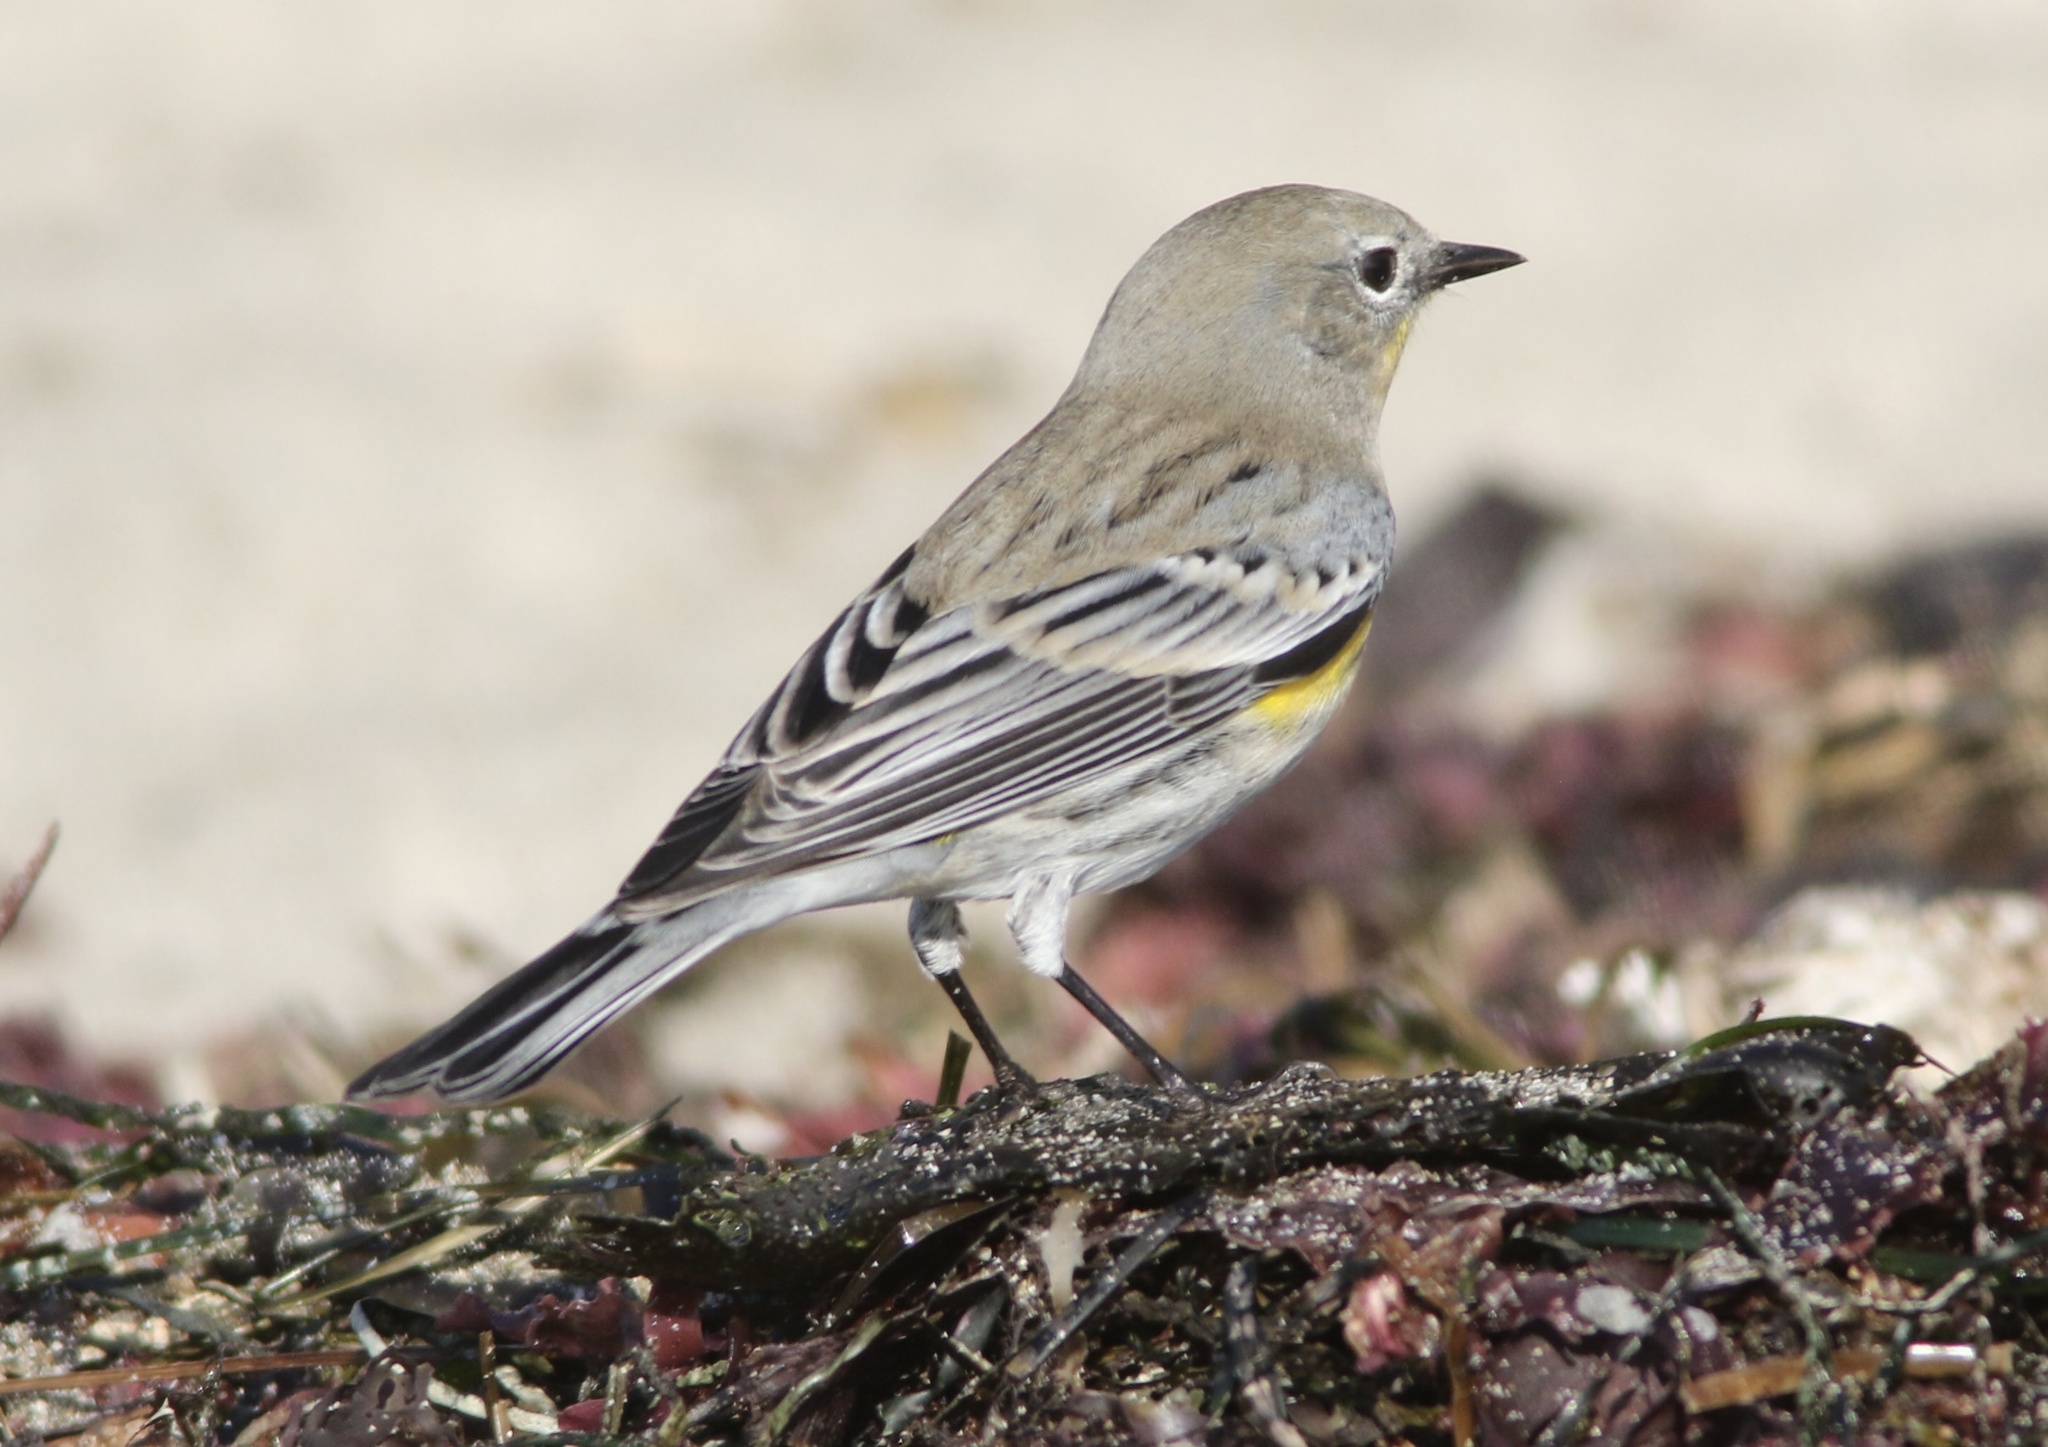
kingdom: Animalia
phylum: Chordata
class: Aves
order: Passeriformes
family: Parulidae
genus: Setophaga
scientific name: Setophaga coronata
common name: Myrtle warbler
